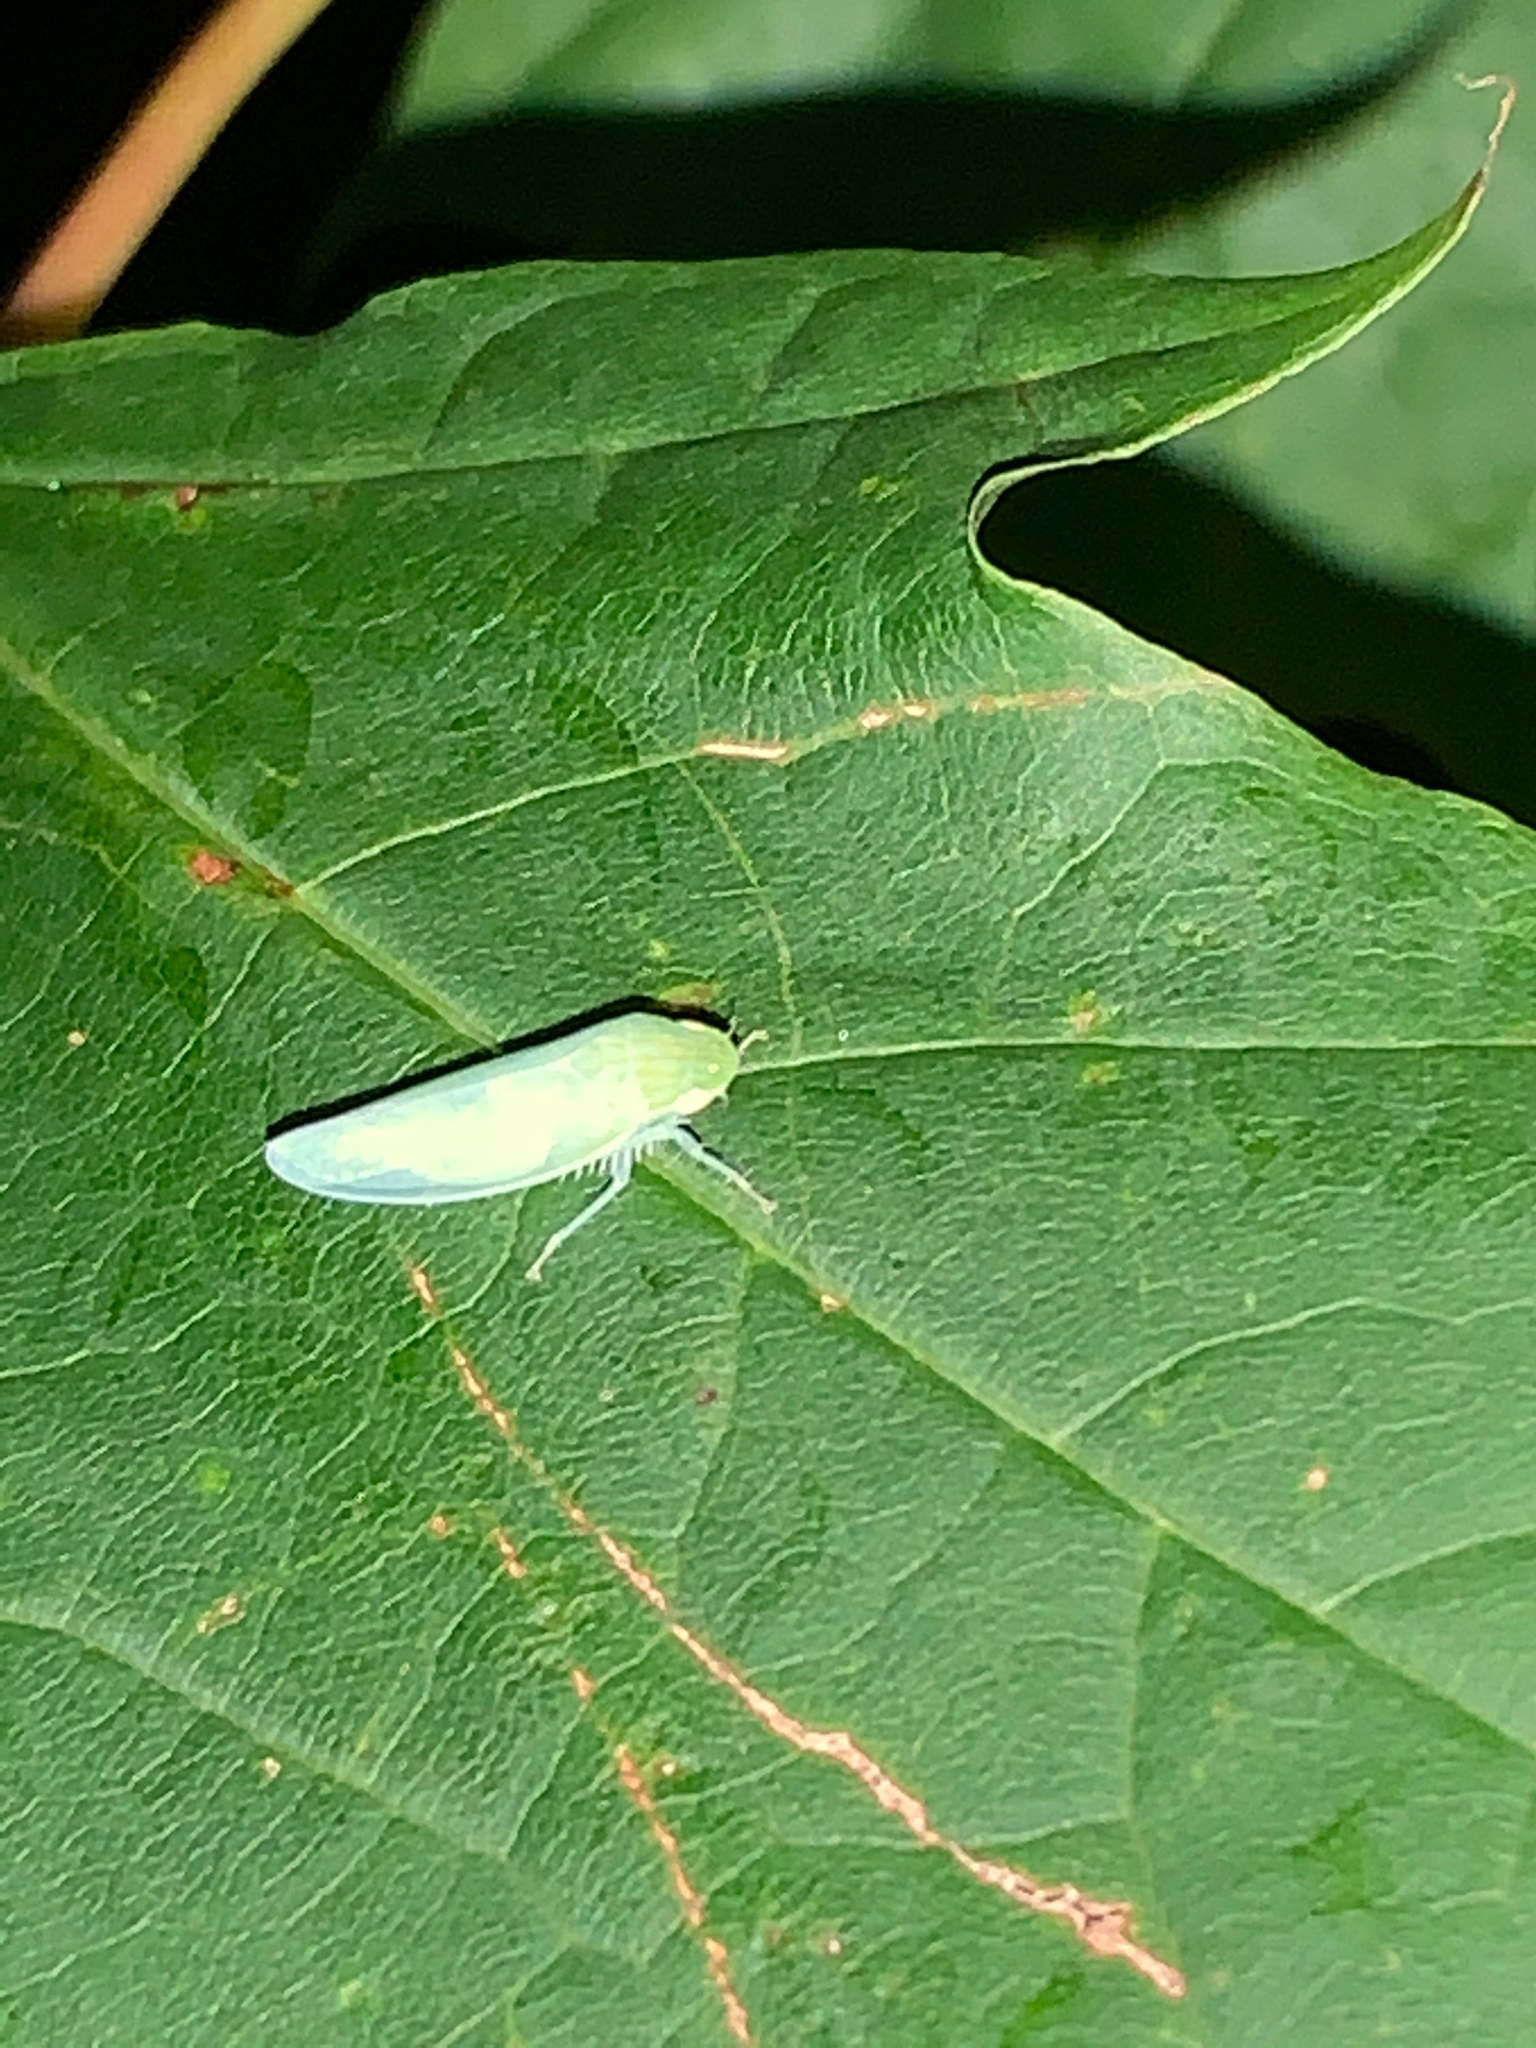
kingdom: Animalia
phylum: Arthropoda
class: Insecta
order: Hemiptera
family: Cicadellidae
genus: Gyponana
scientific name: Gyponana
